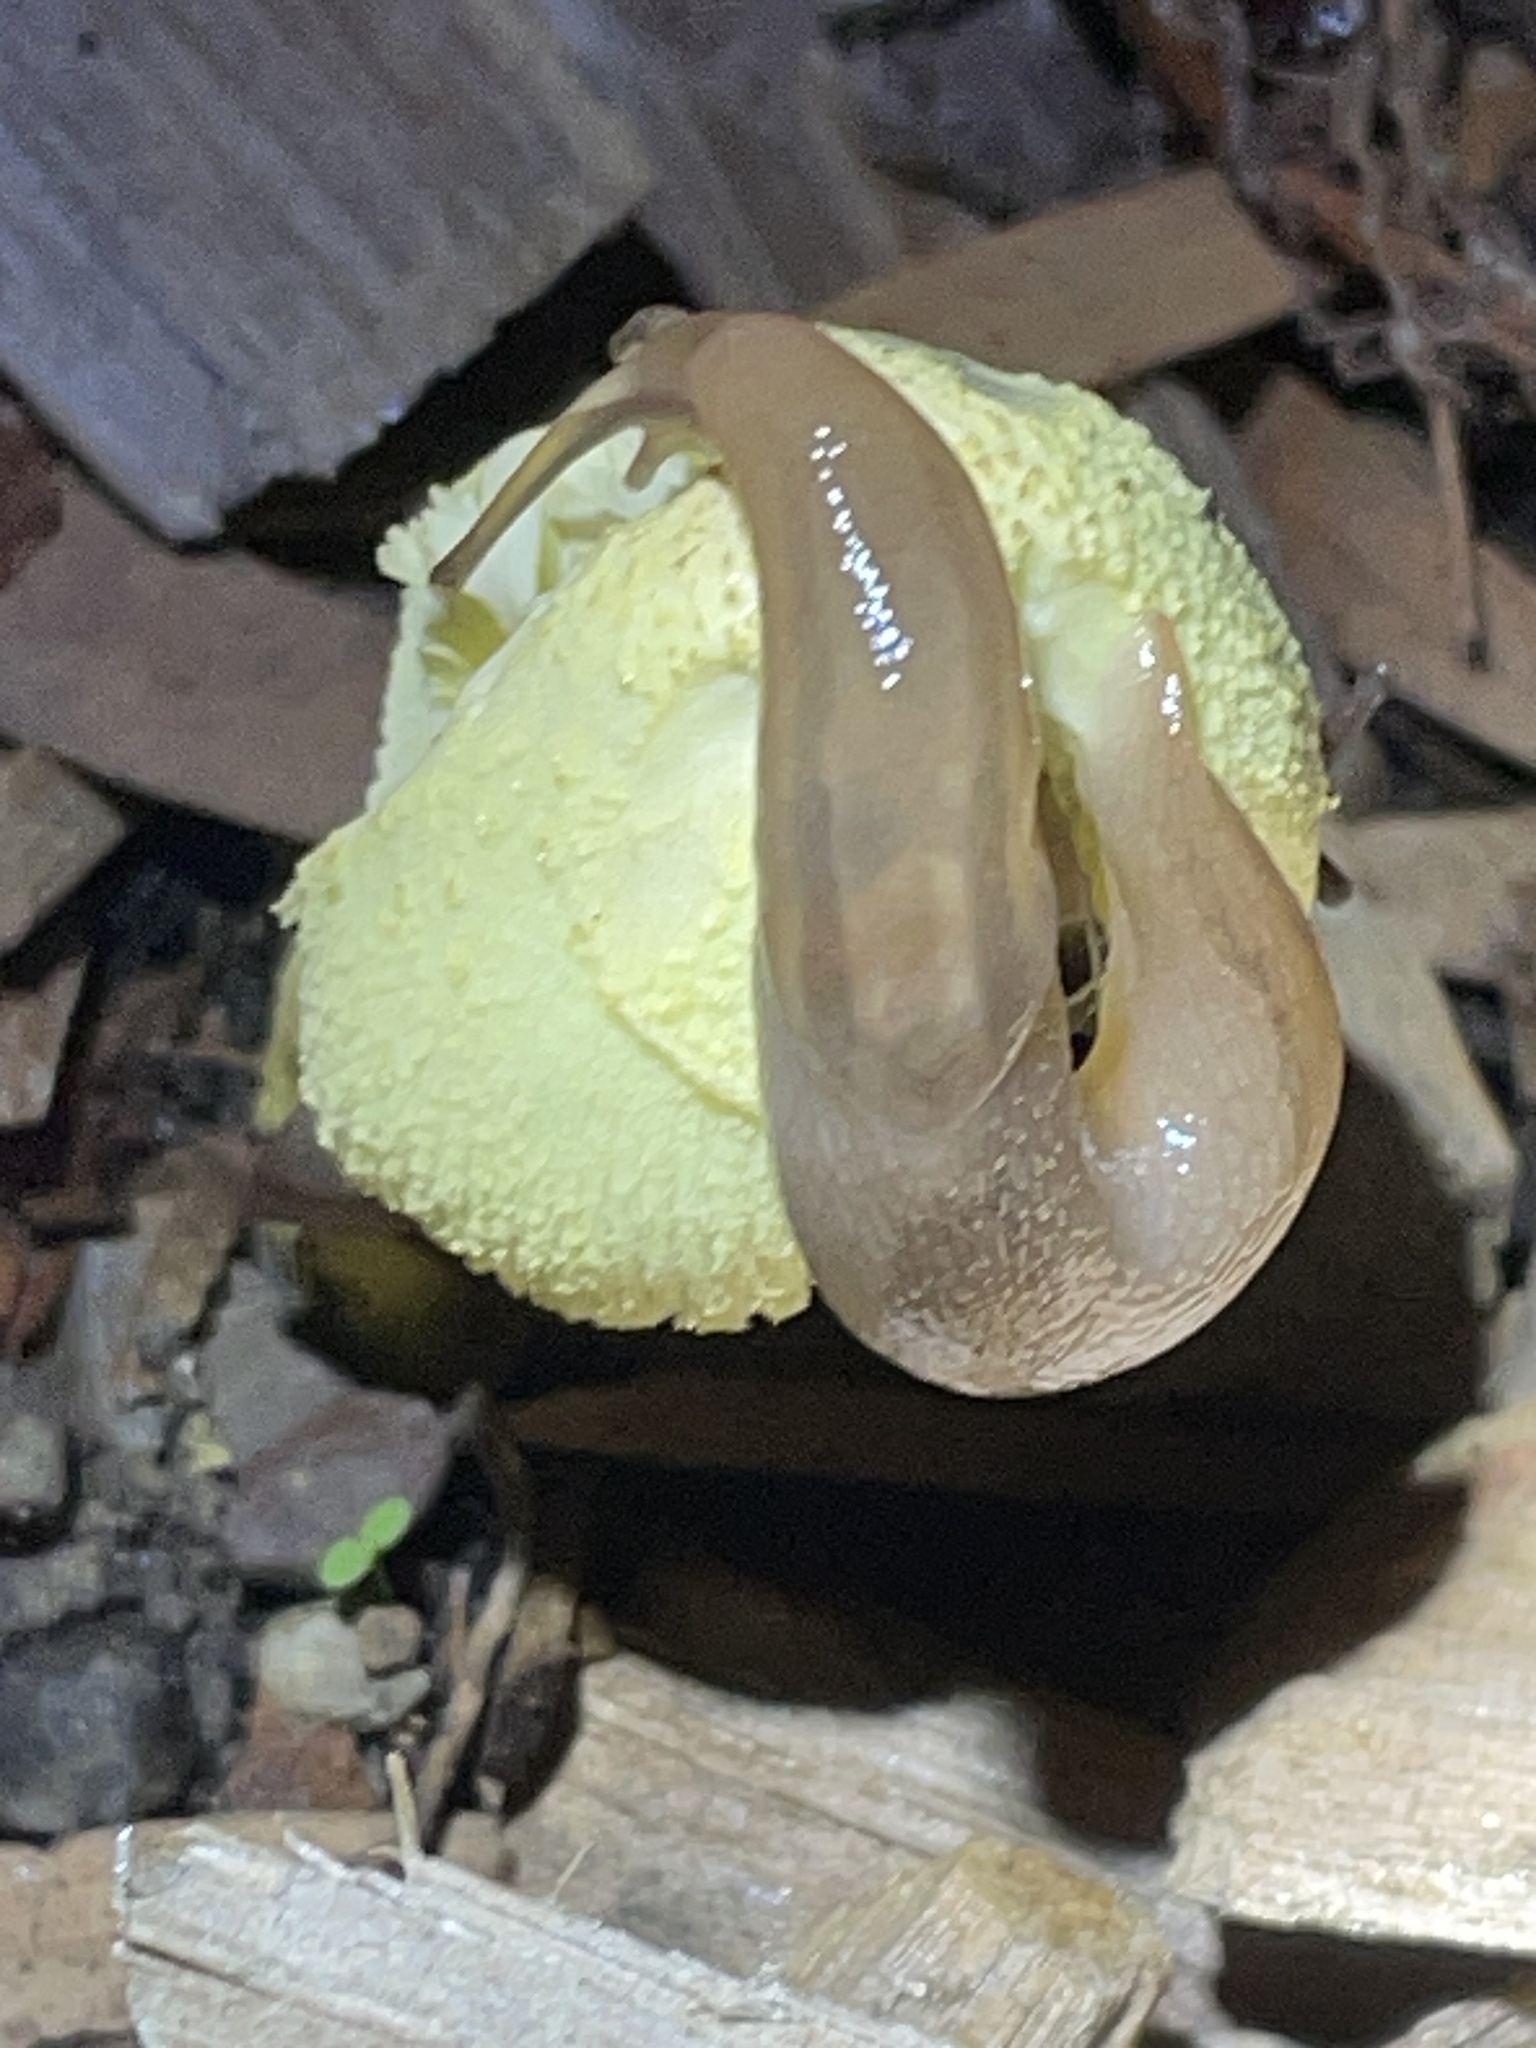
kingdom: Animalia
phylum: Mollusca
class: Gastropoda
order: Stylommatophora
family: Limacidae
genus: Ambigolimax
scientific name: Ambigolimax
